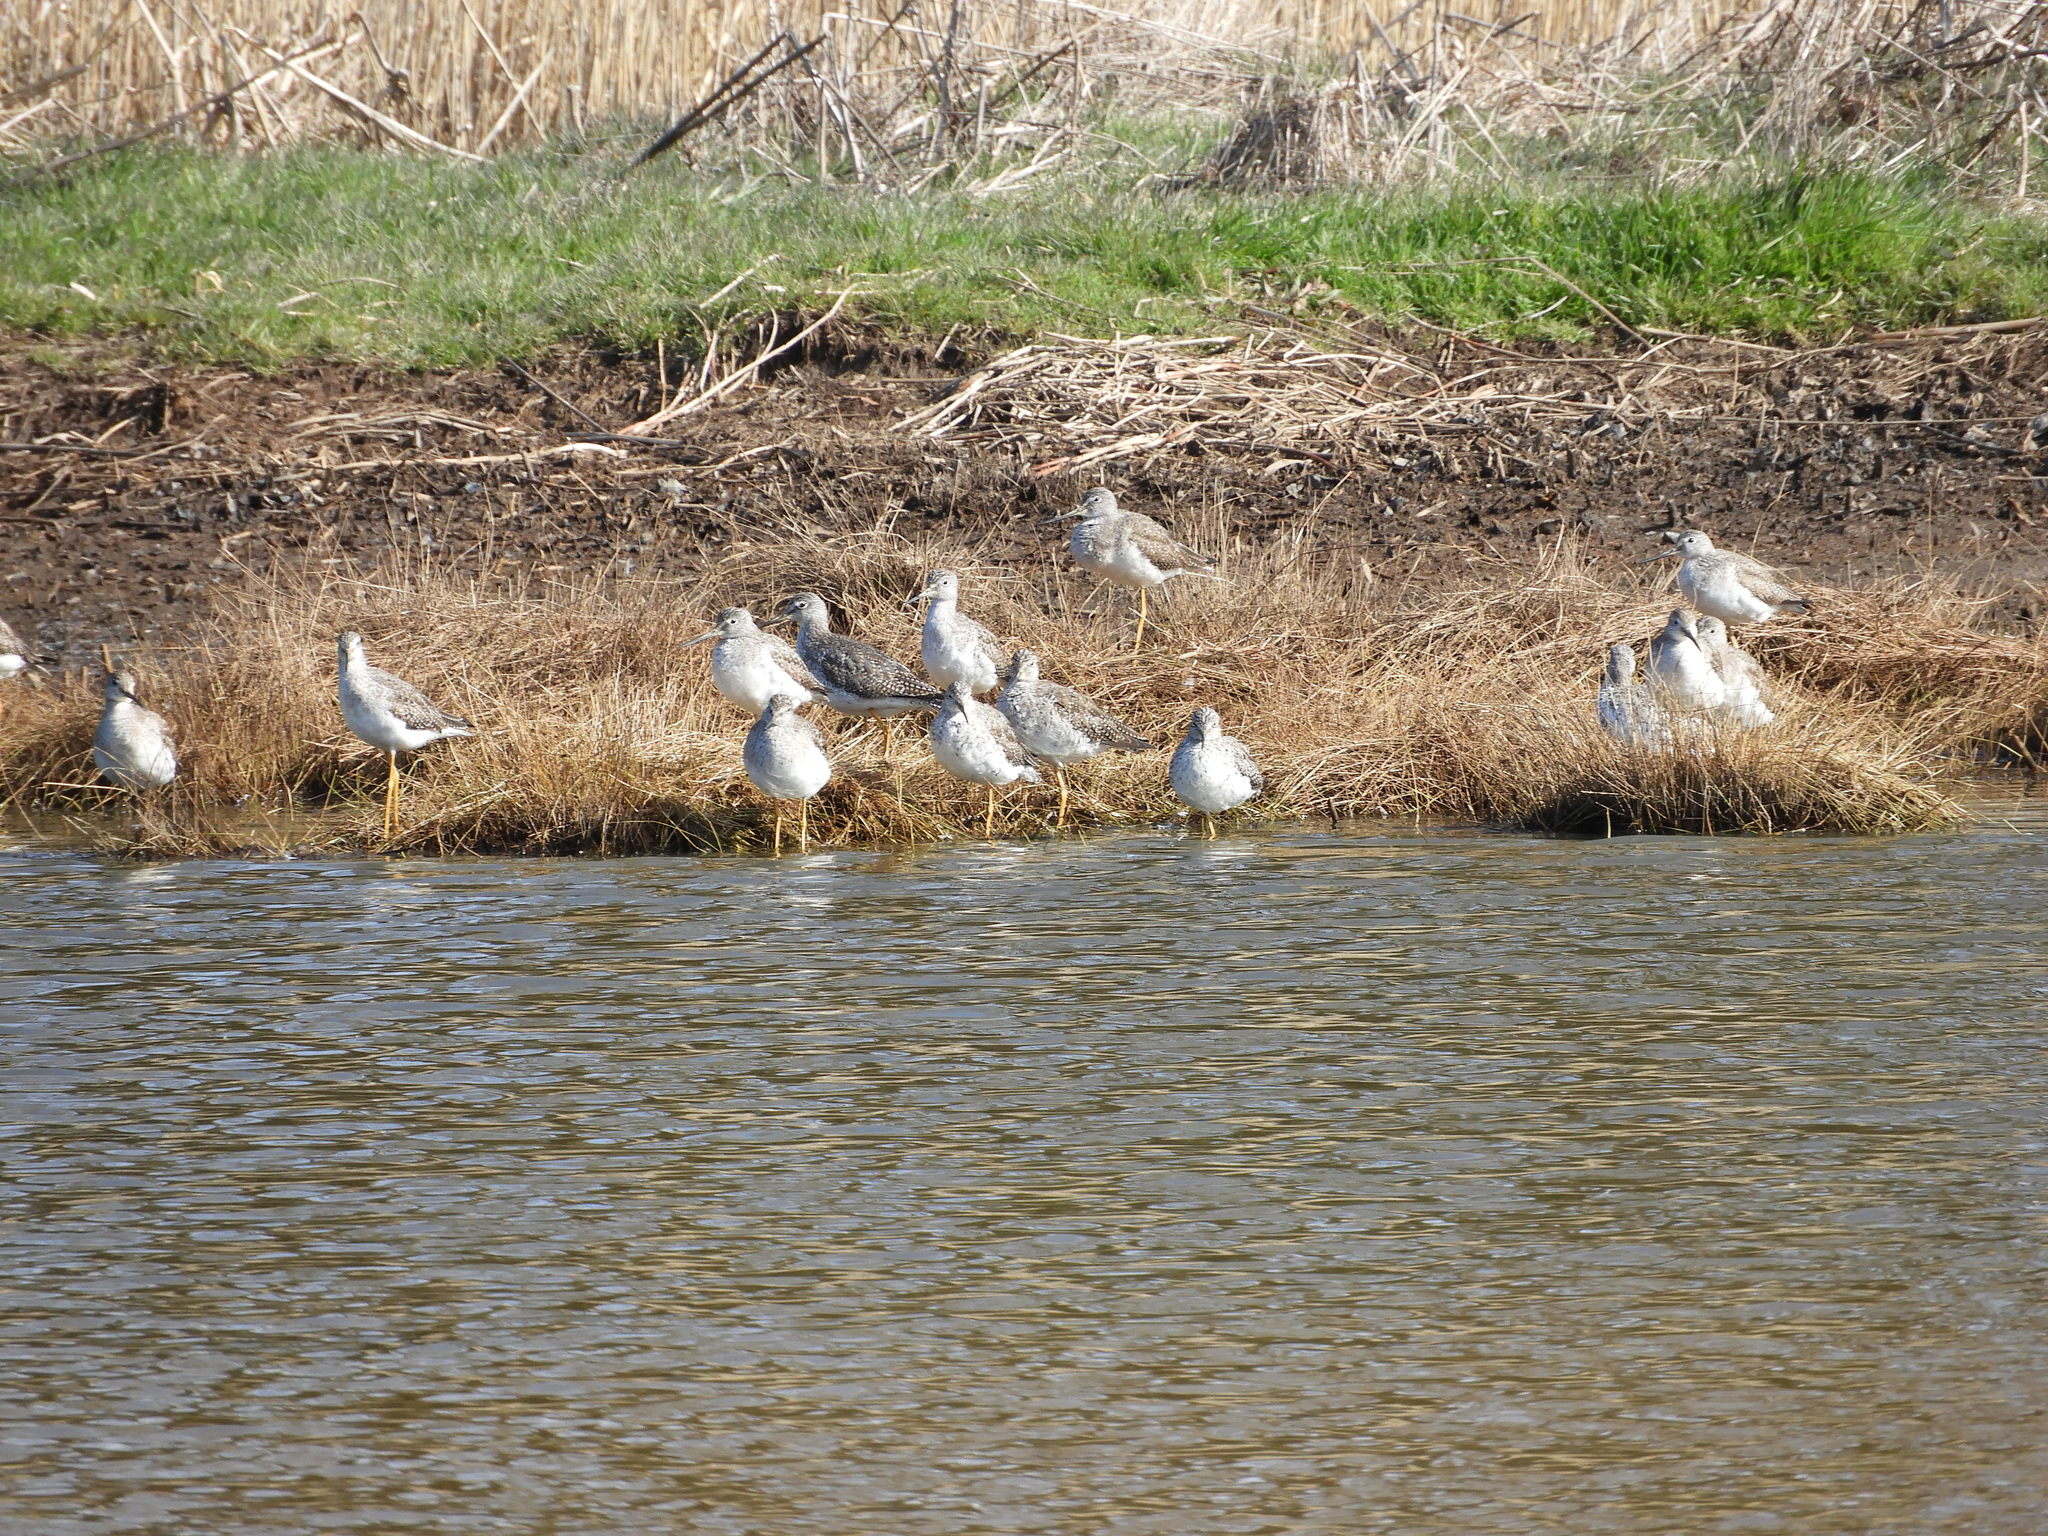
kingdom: Animalia
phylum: Chordata
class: Aves
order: Charadriiformes
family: Scolopacidae
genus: Tringa
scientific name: Tringa melanoleuca
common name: Greater yellowlegs
